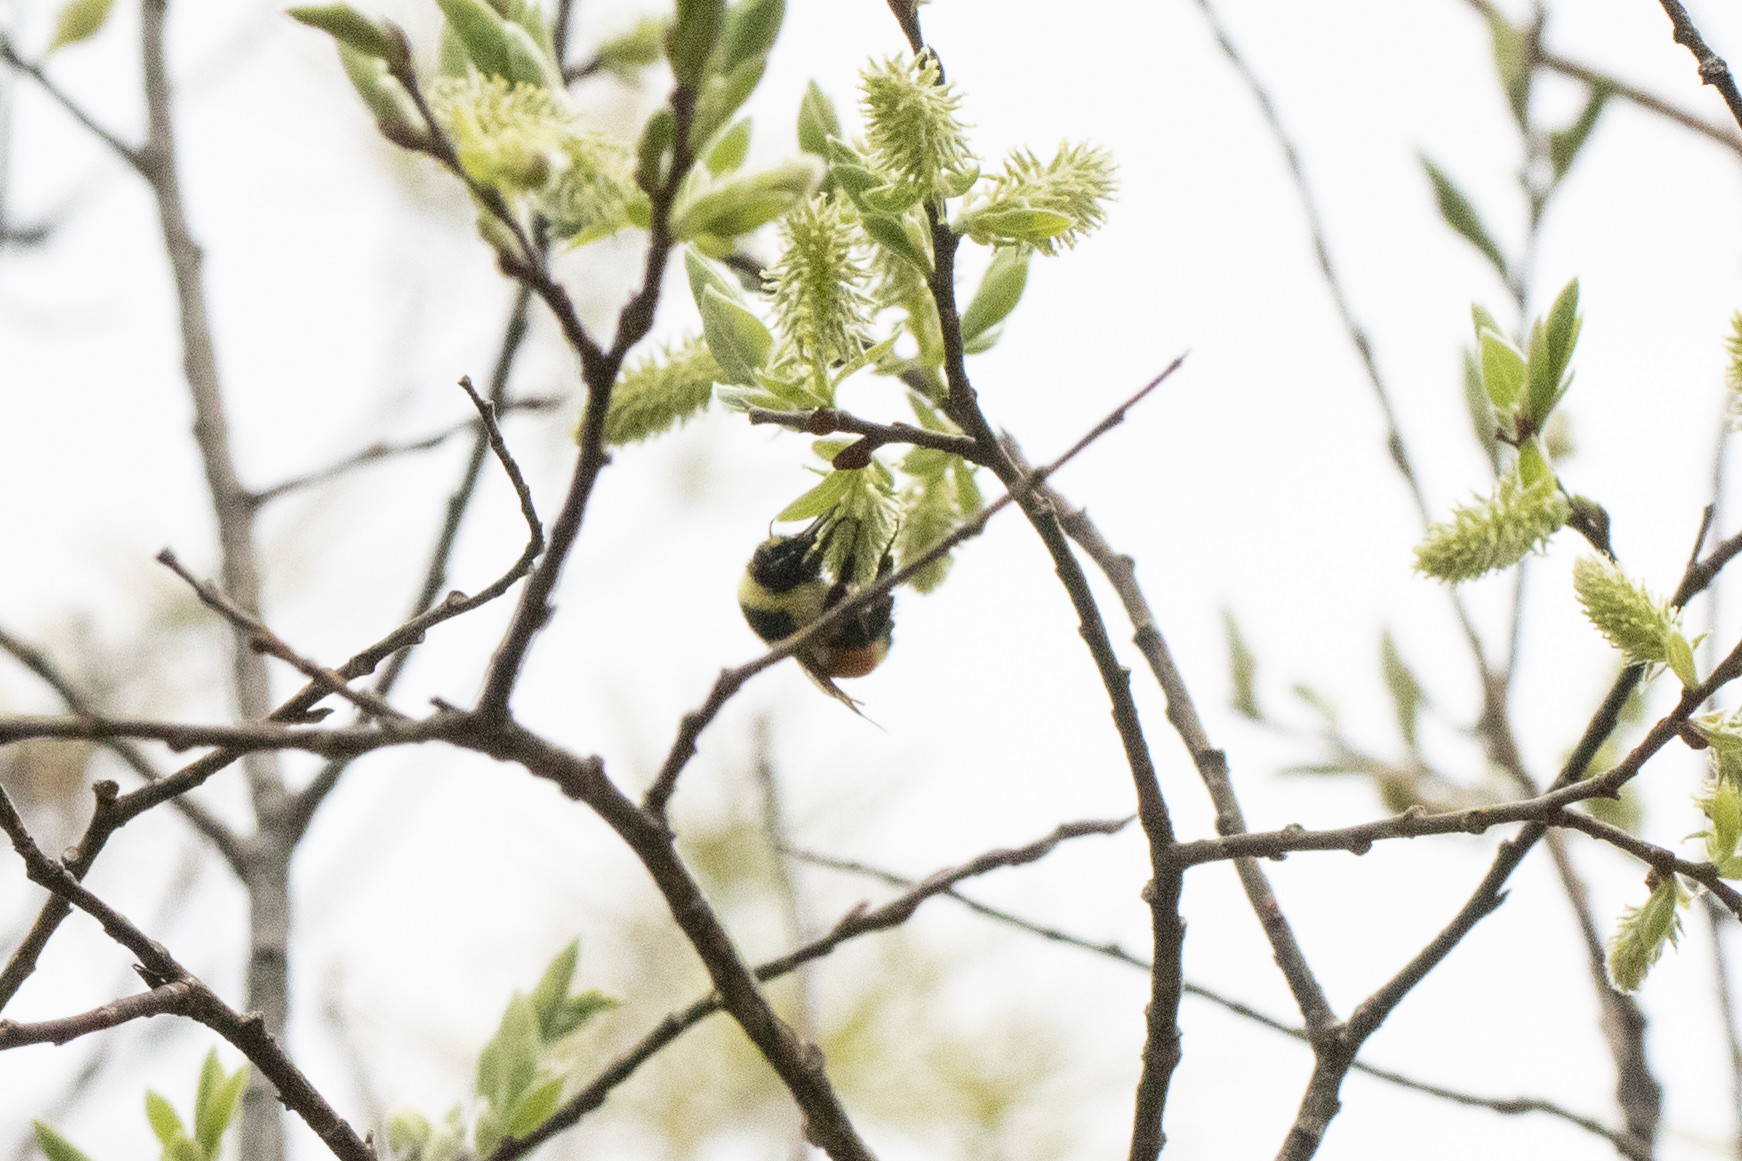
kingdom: Animalia
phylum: Arthropoda
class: Insecta
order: Hymenoptera
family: Apidae
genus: Bombus
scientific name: Bombus ternarius
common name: Tri-colored bumble bee
